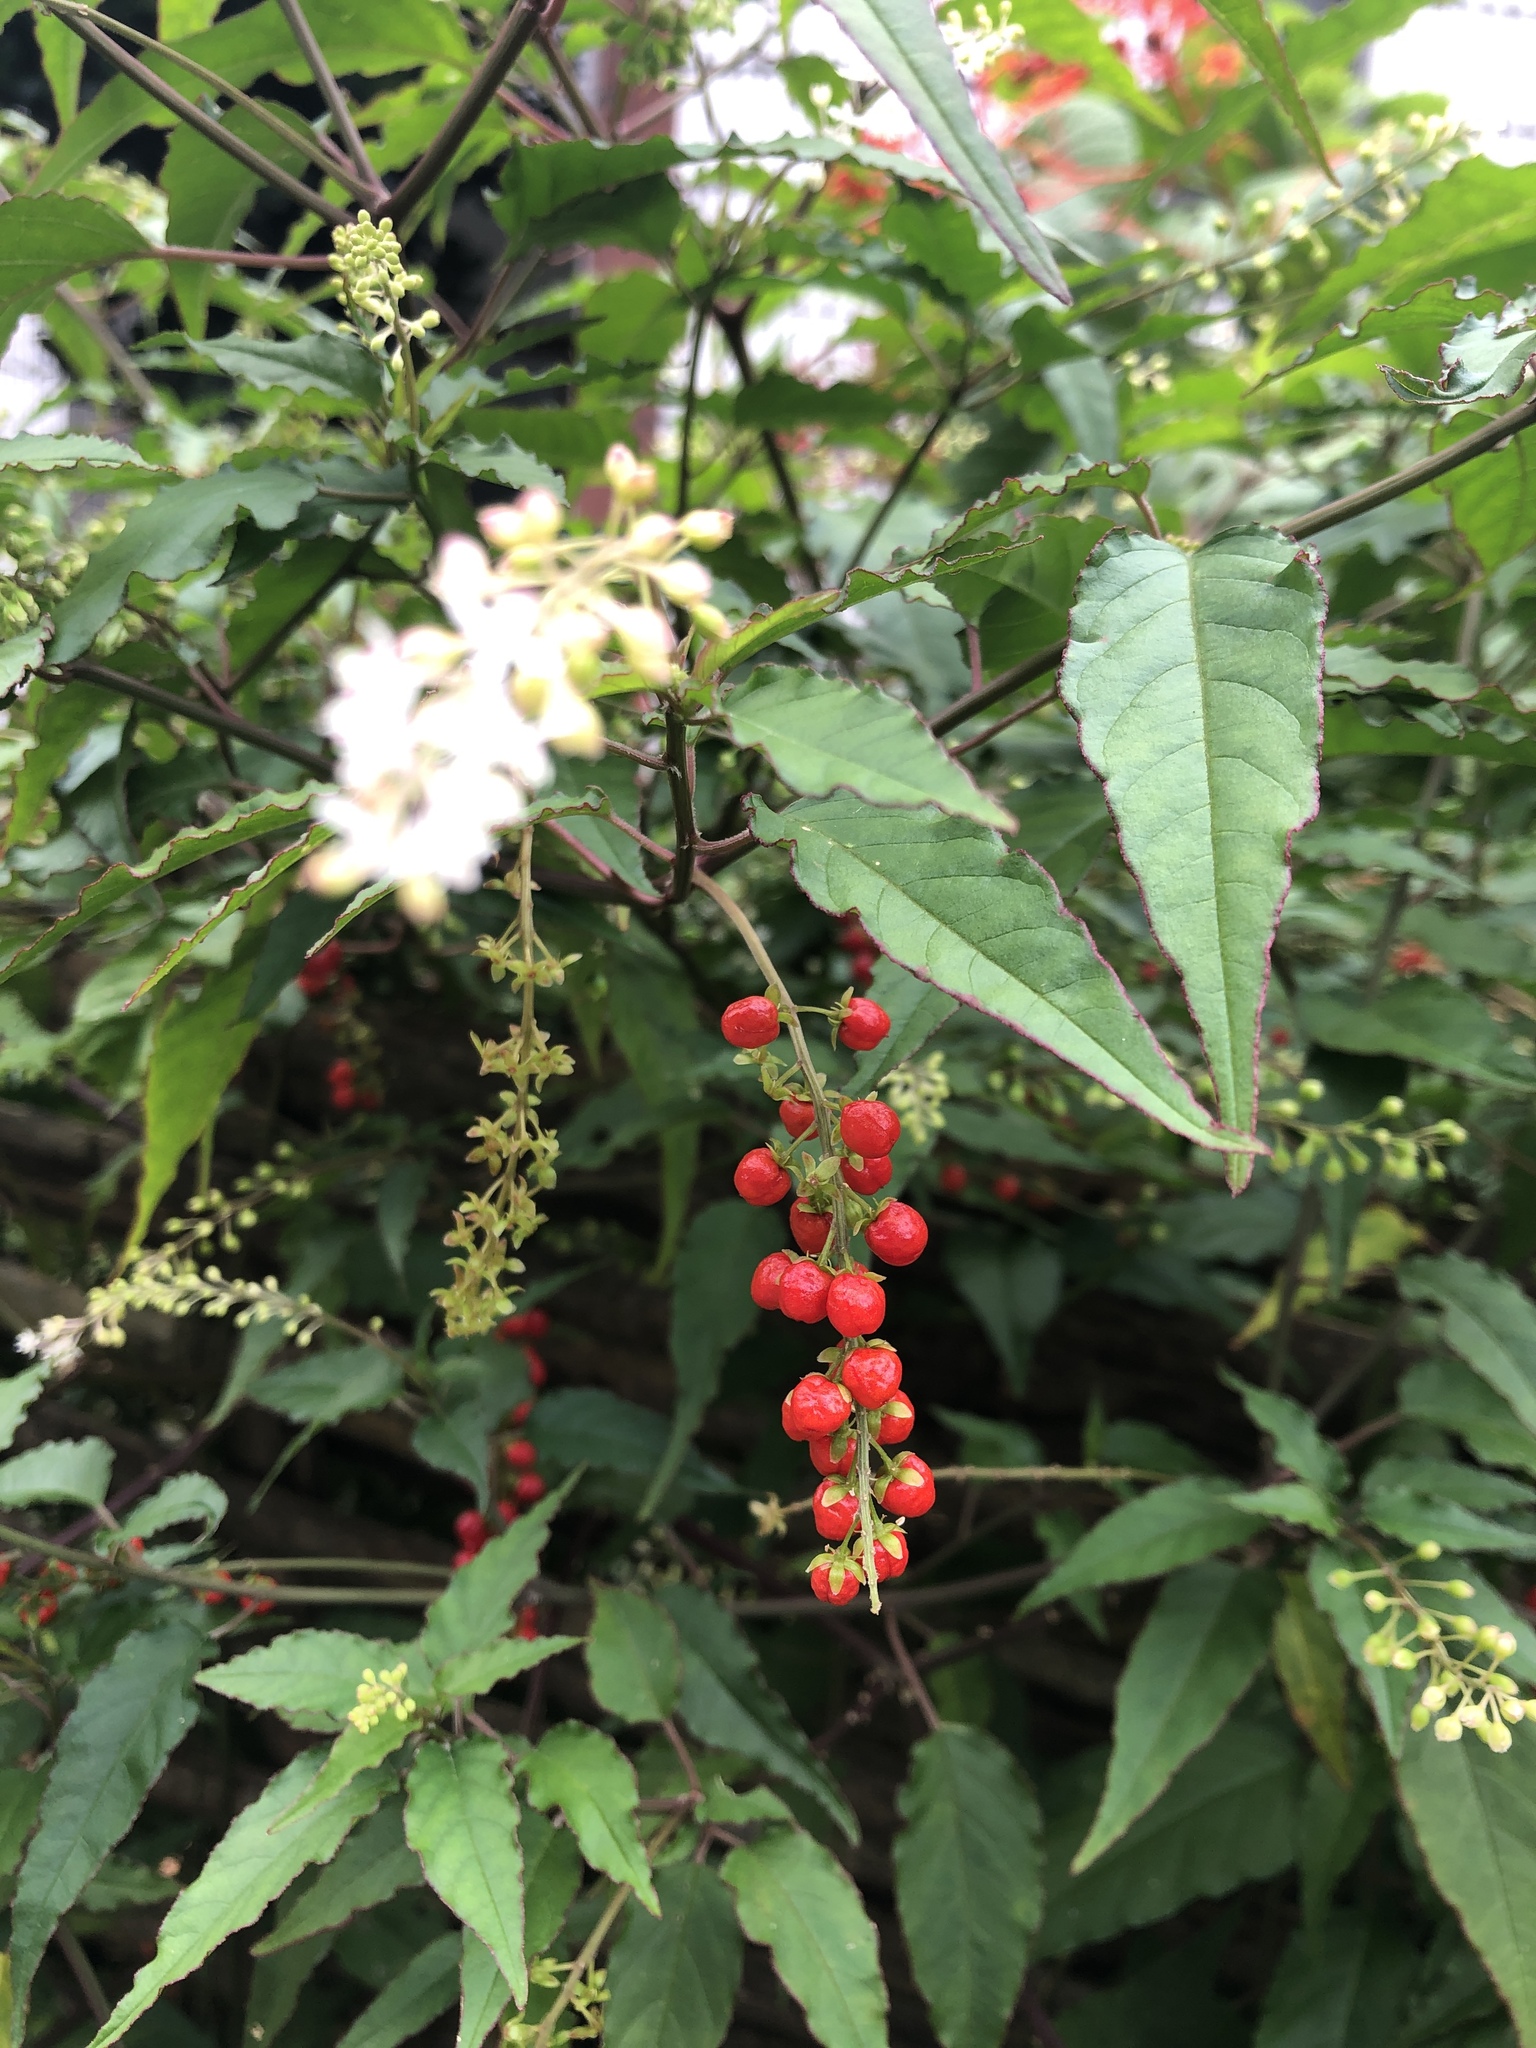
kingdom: Plantae
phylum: Tracheophyta
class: Magnoliopsida
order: Caryophyllales
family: Phytolaccaceae
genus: Rivina
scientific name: Rivina humilis
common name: Rougeplant
